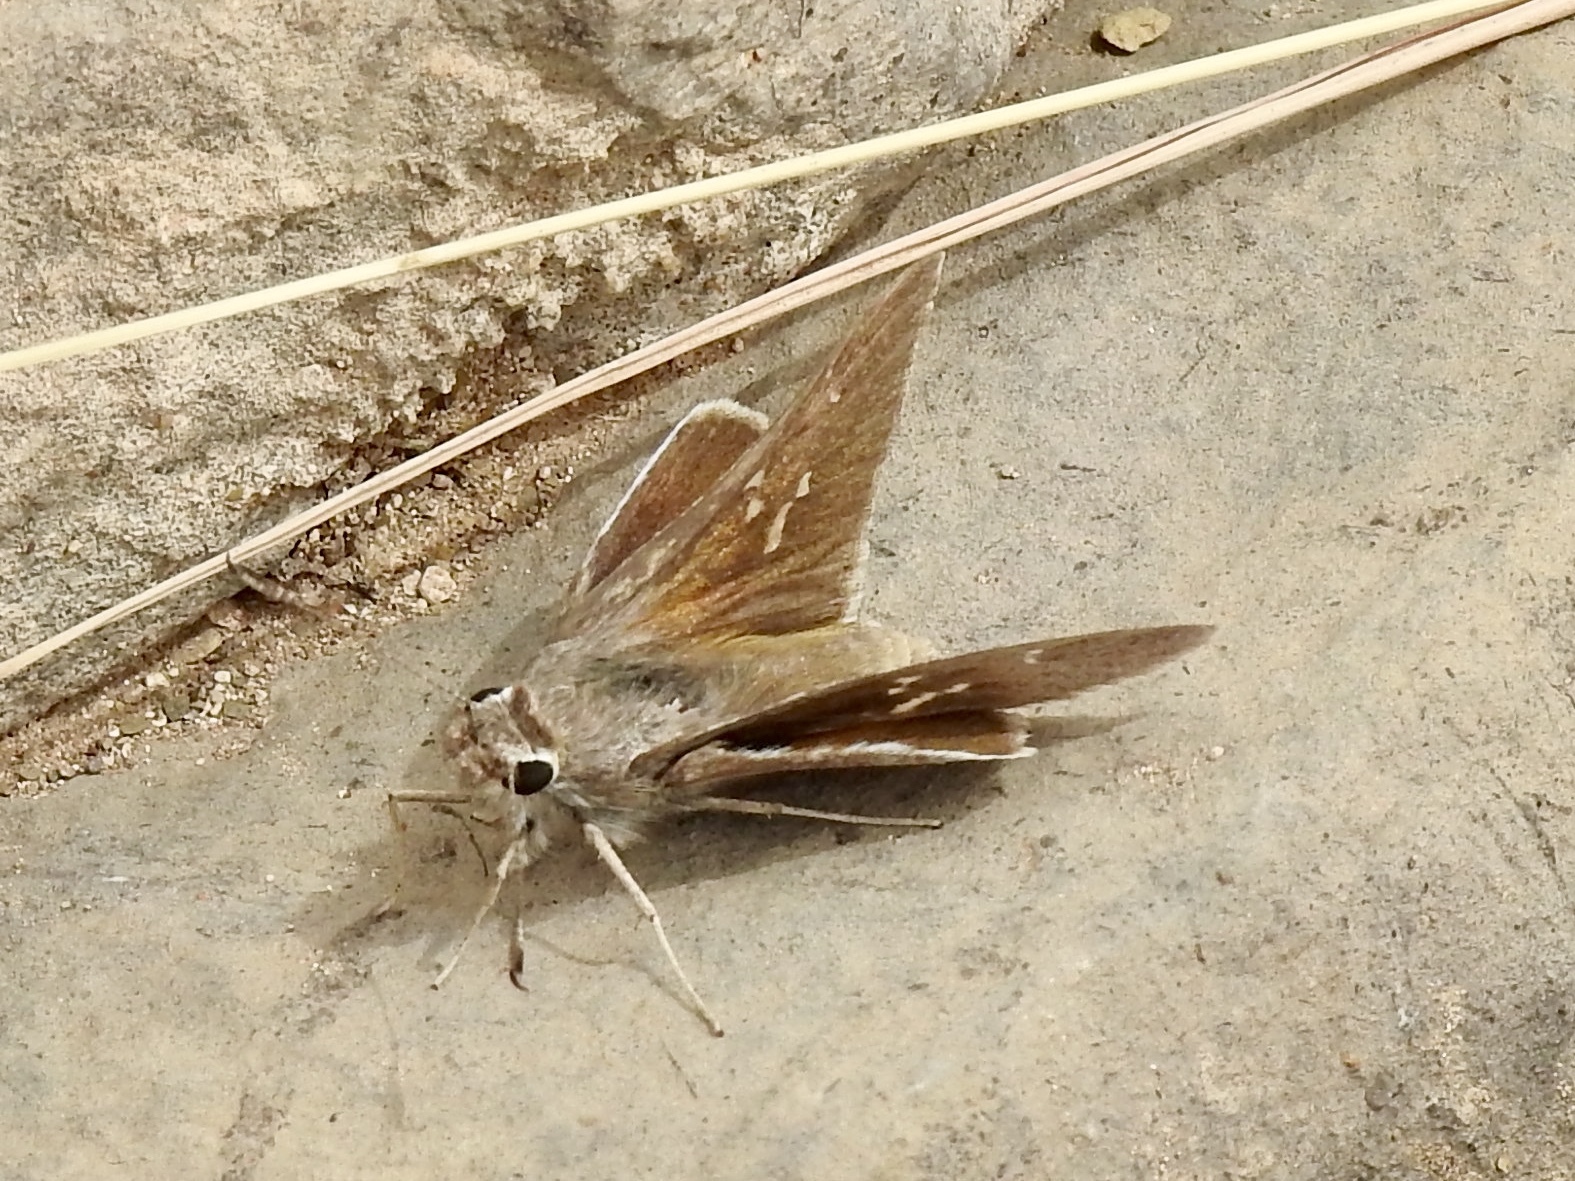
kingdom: Animalia
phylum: Arthropoda
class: Insecta
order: Lepidoptera
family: Hesperiidae
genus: Atrytonopsis
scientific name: Atrytonopsis vierecki
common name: Viereck's skipper
